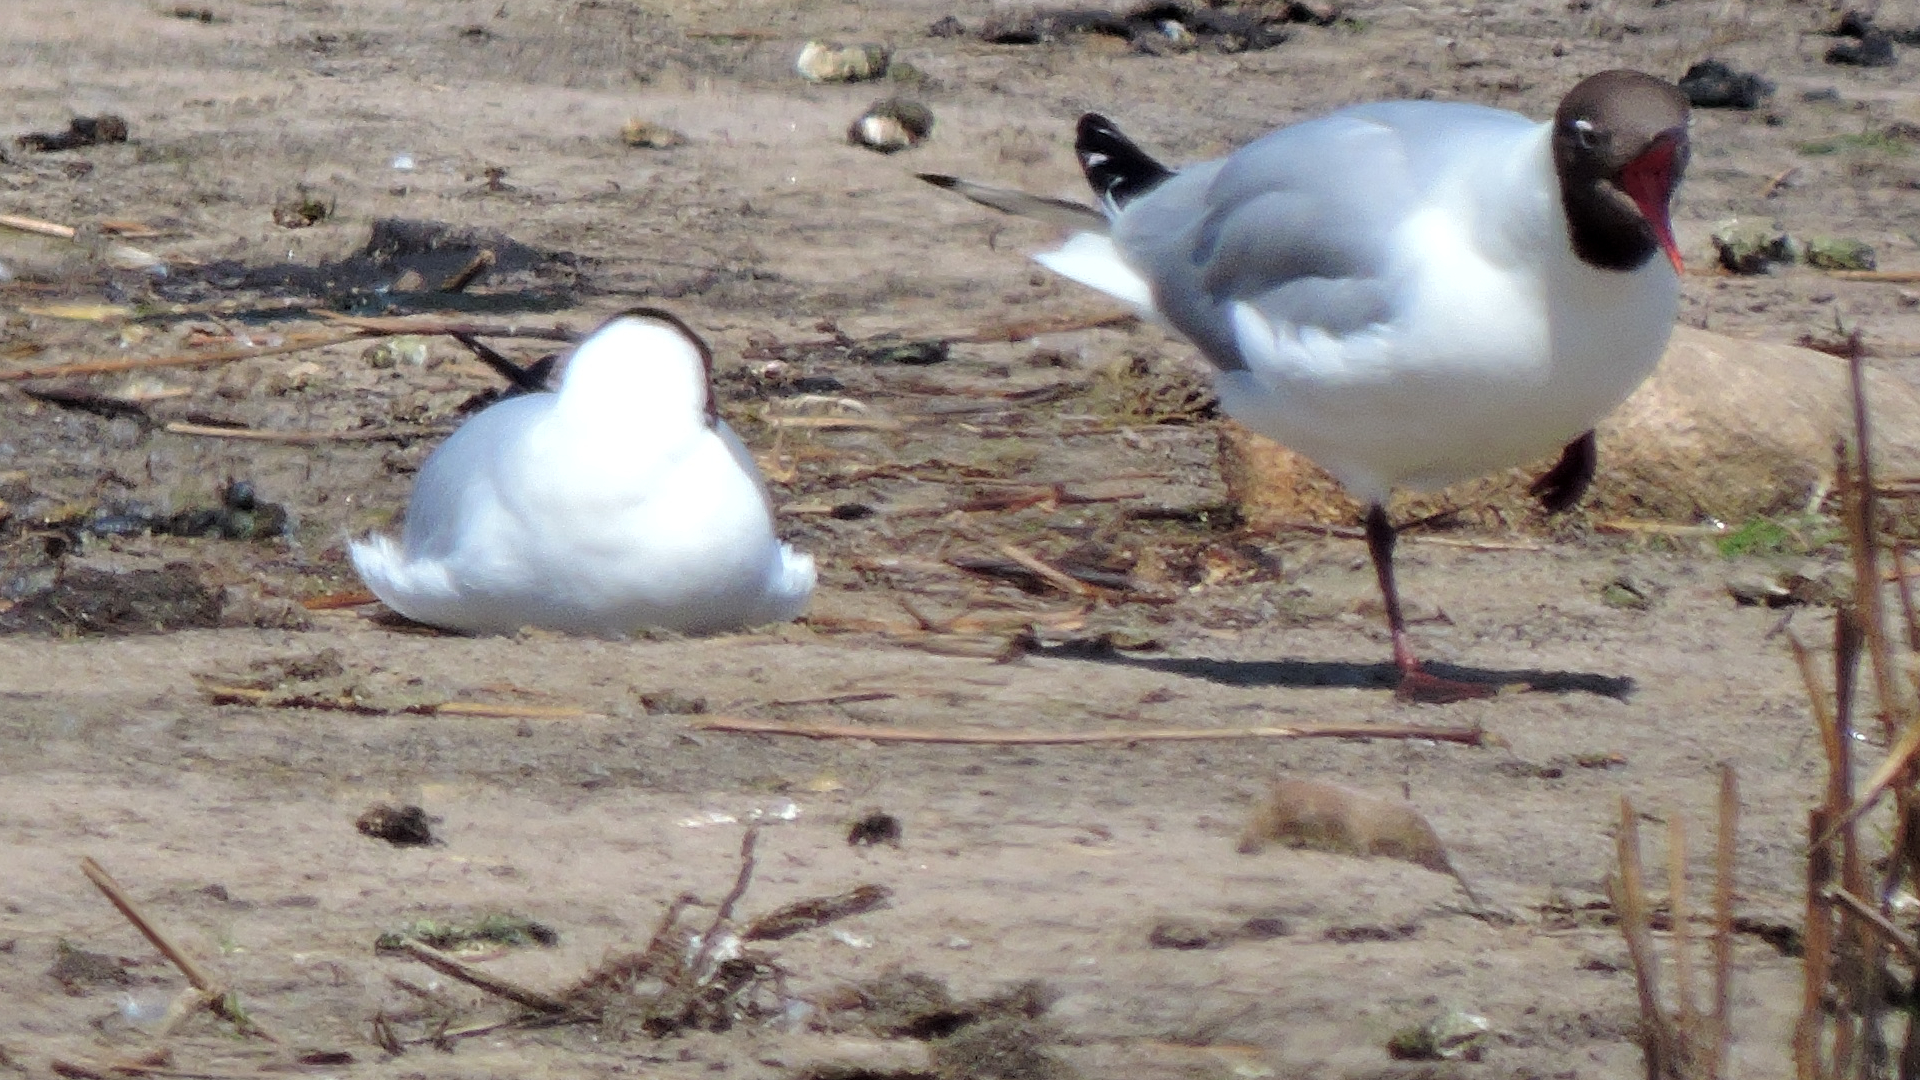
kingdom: Animalia
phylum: Chordata
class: Aves
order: Charadriiformes
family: Laridae
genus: Chroicocephalus
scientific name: Chroicocephalus ridibundus
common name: Black-headed gull
